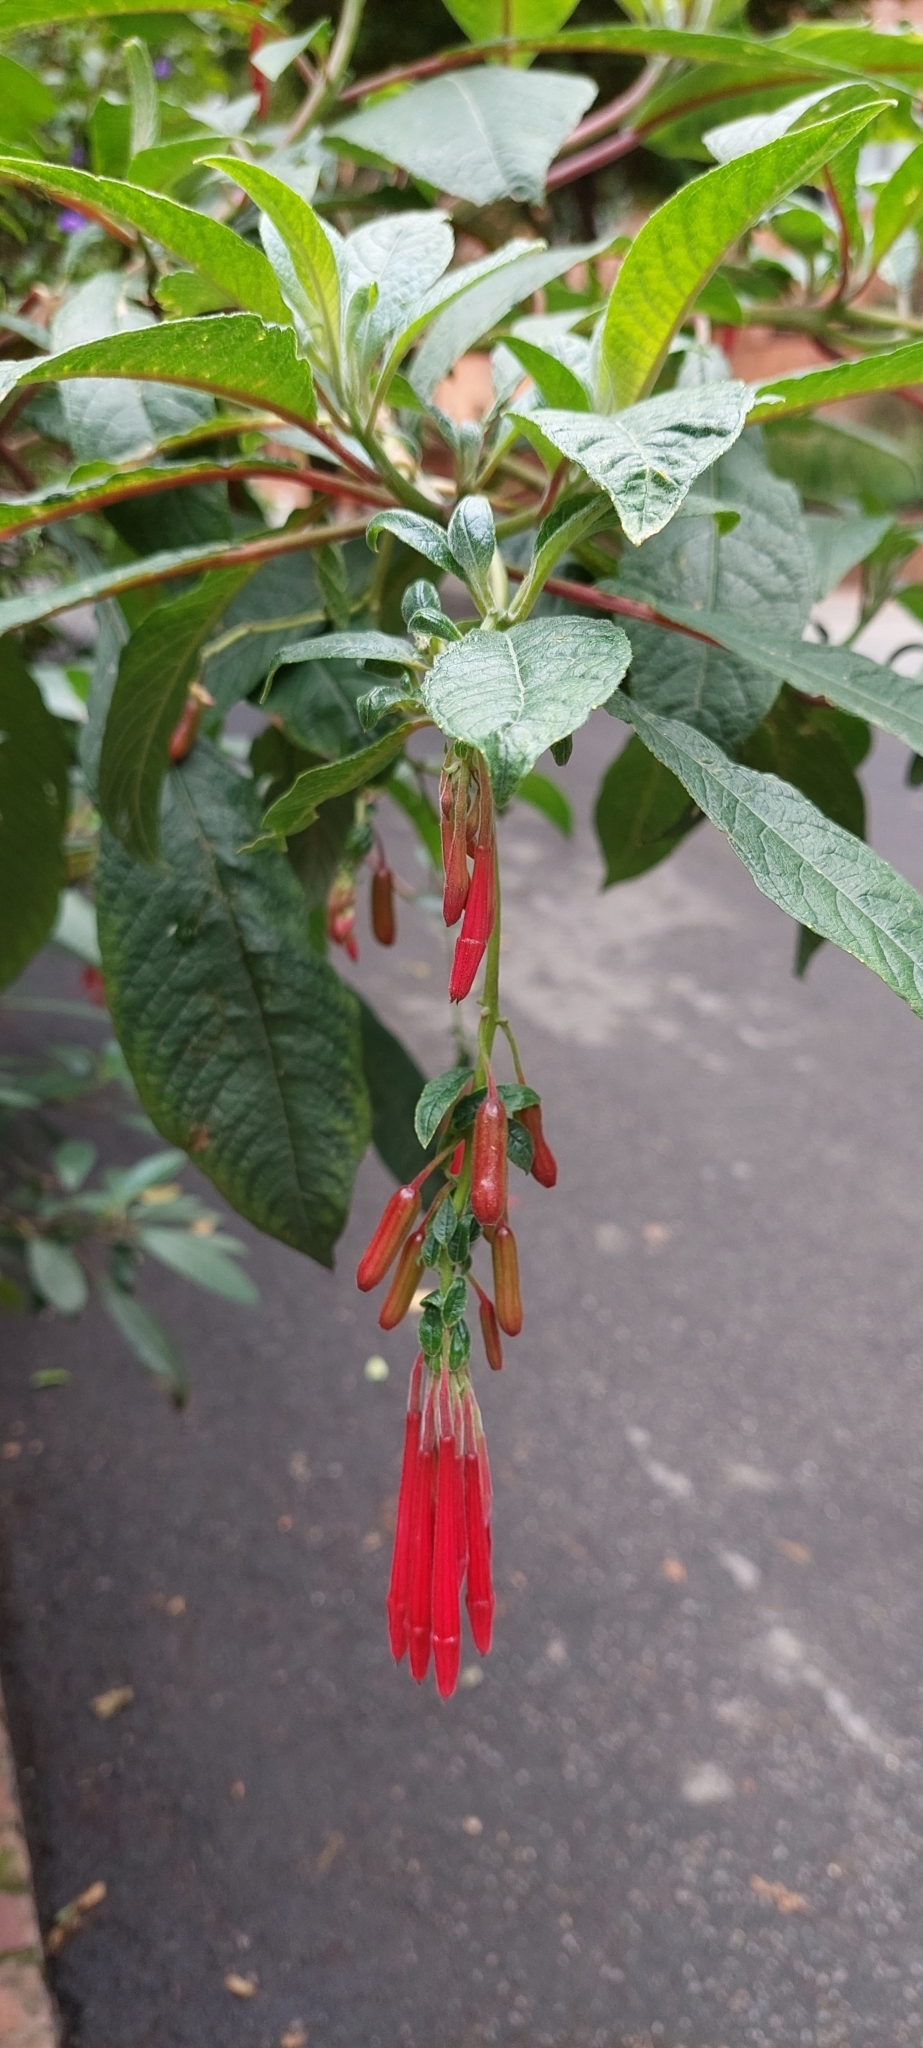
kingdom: Plantae
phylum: Tracheophyta
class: Magnoliopsida
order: Myrtales
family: Onagraceae
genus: Fuchsia
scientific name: Fuchsia boliviana
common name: Bolivian fuchsia
